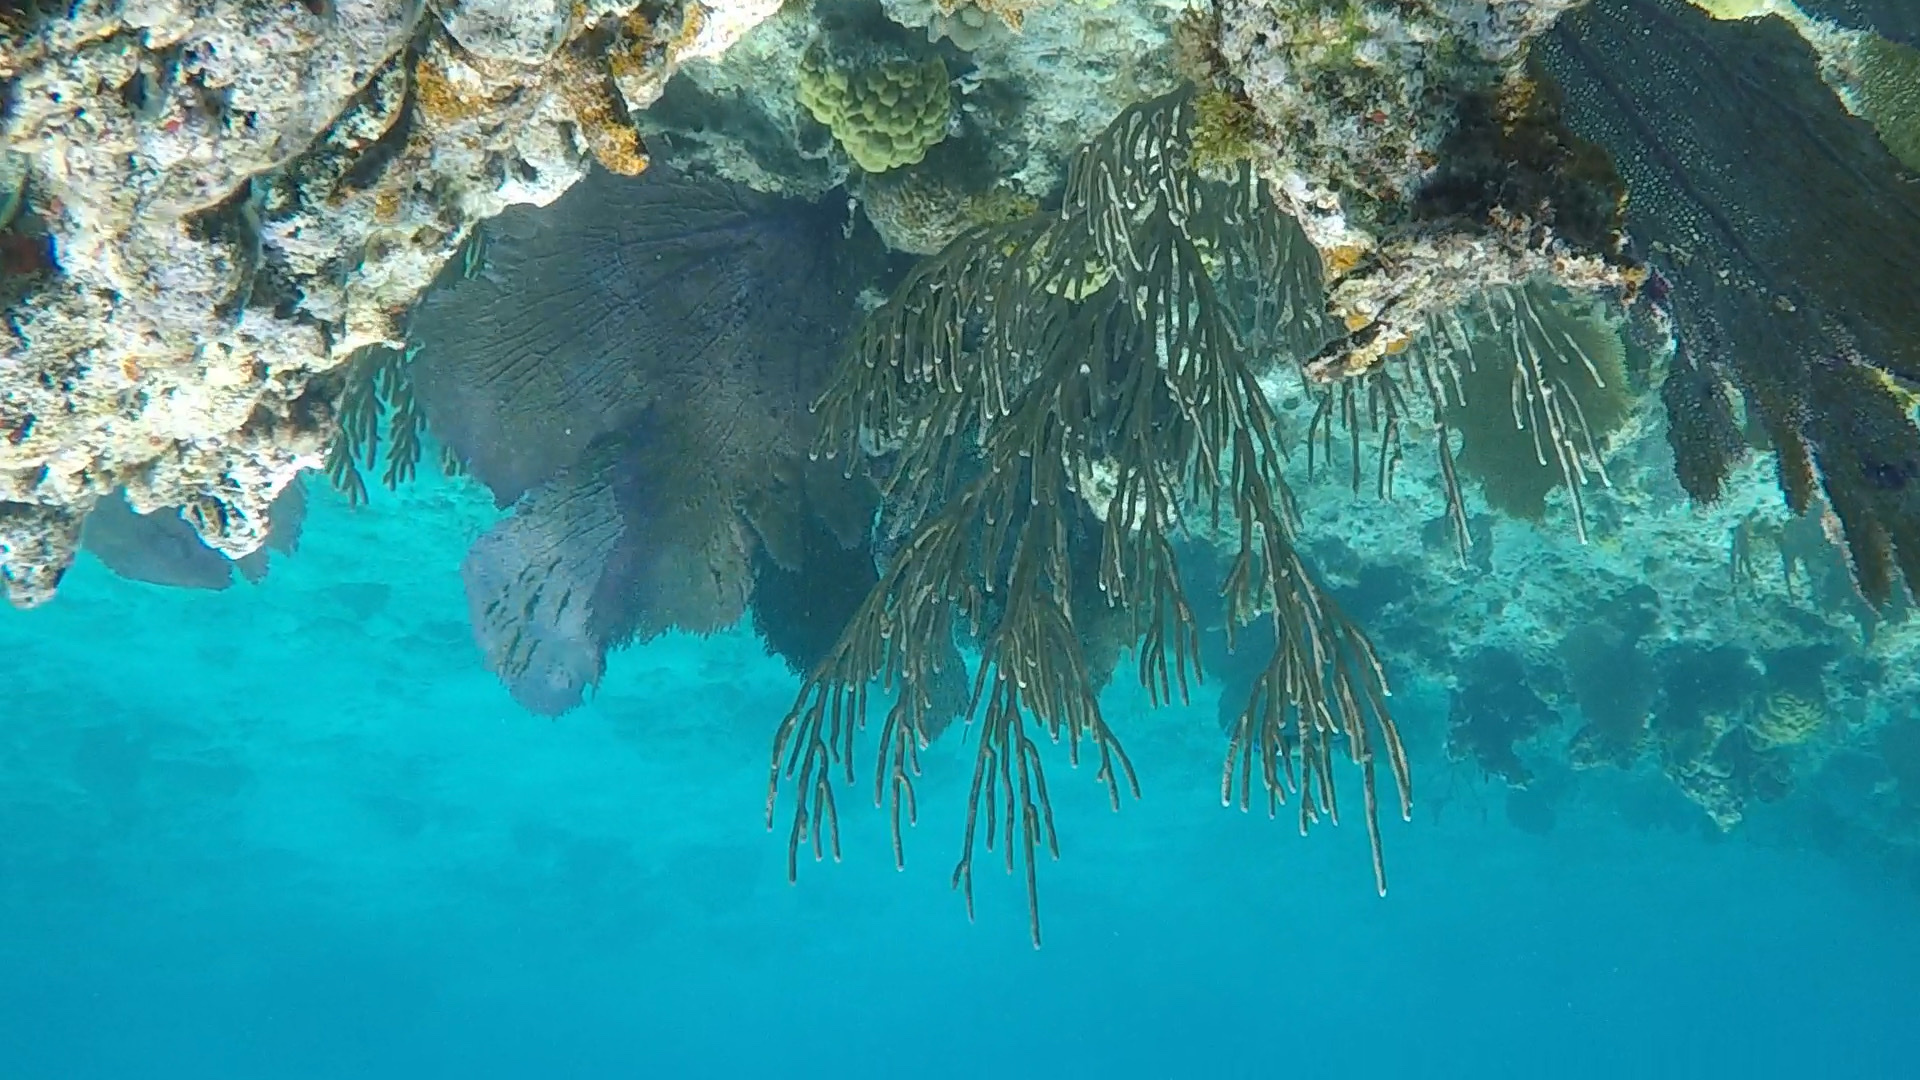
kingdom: Animalia
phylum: Cnidaria
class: Anthozoa
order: Malacalcyonacea
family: Gorgoniidae
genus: Gorgonia
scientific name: Gorgonia ventalina
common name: Common sea fan
